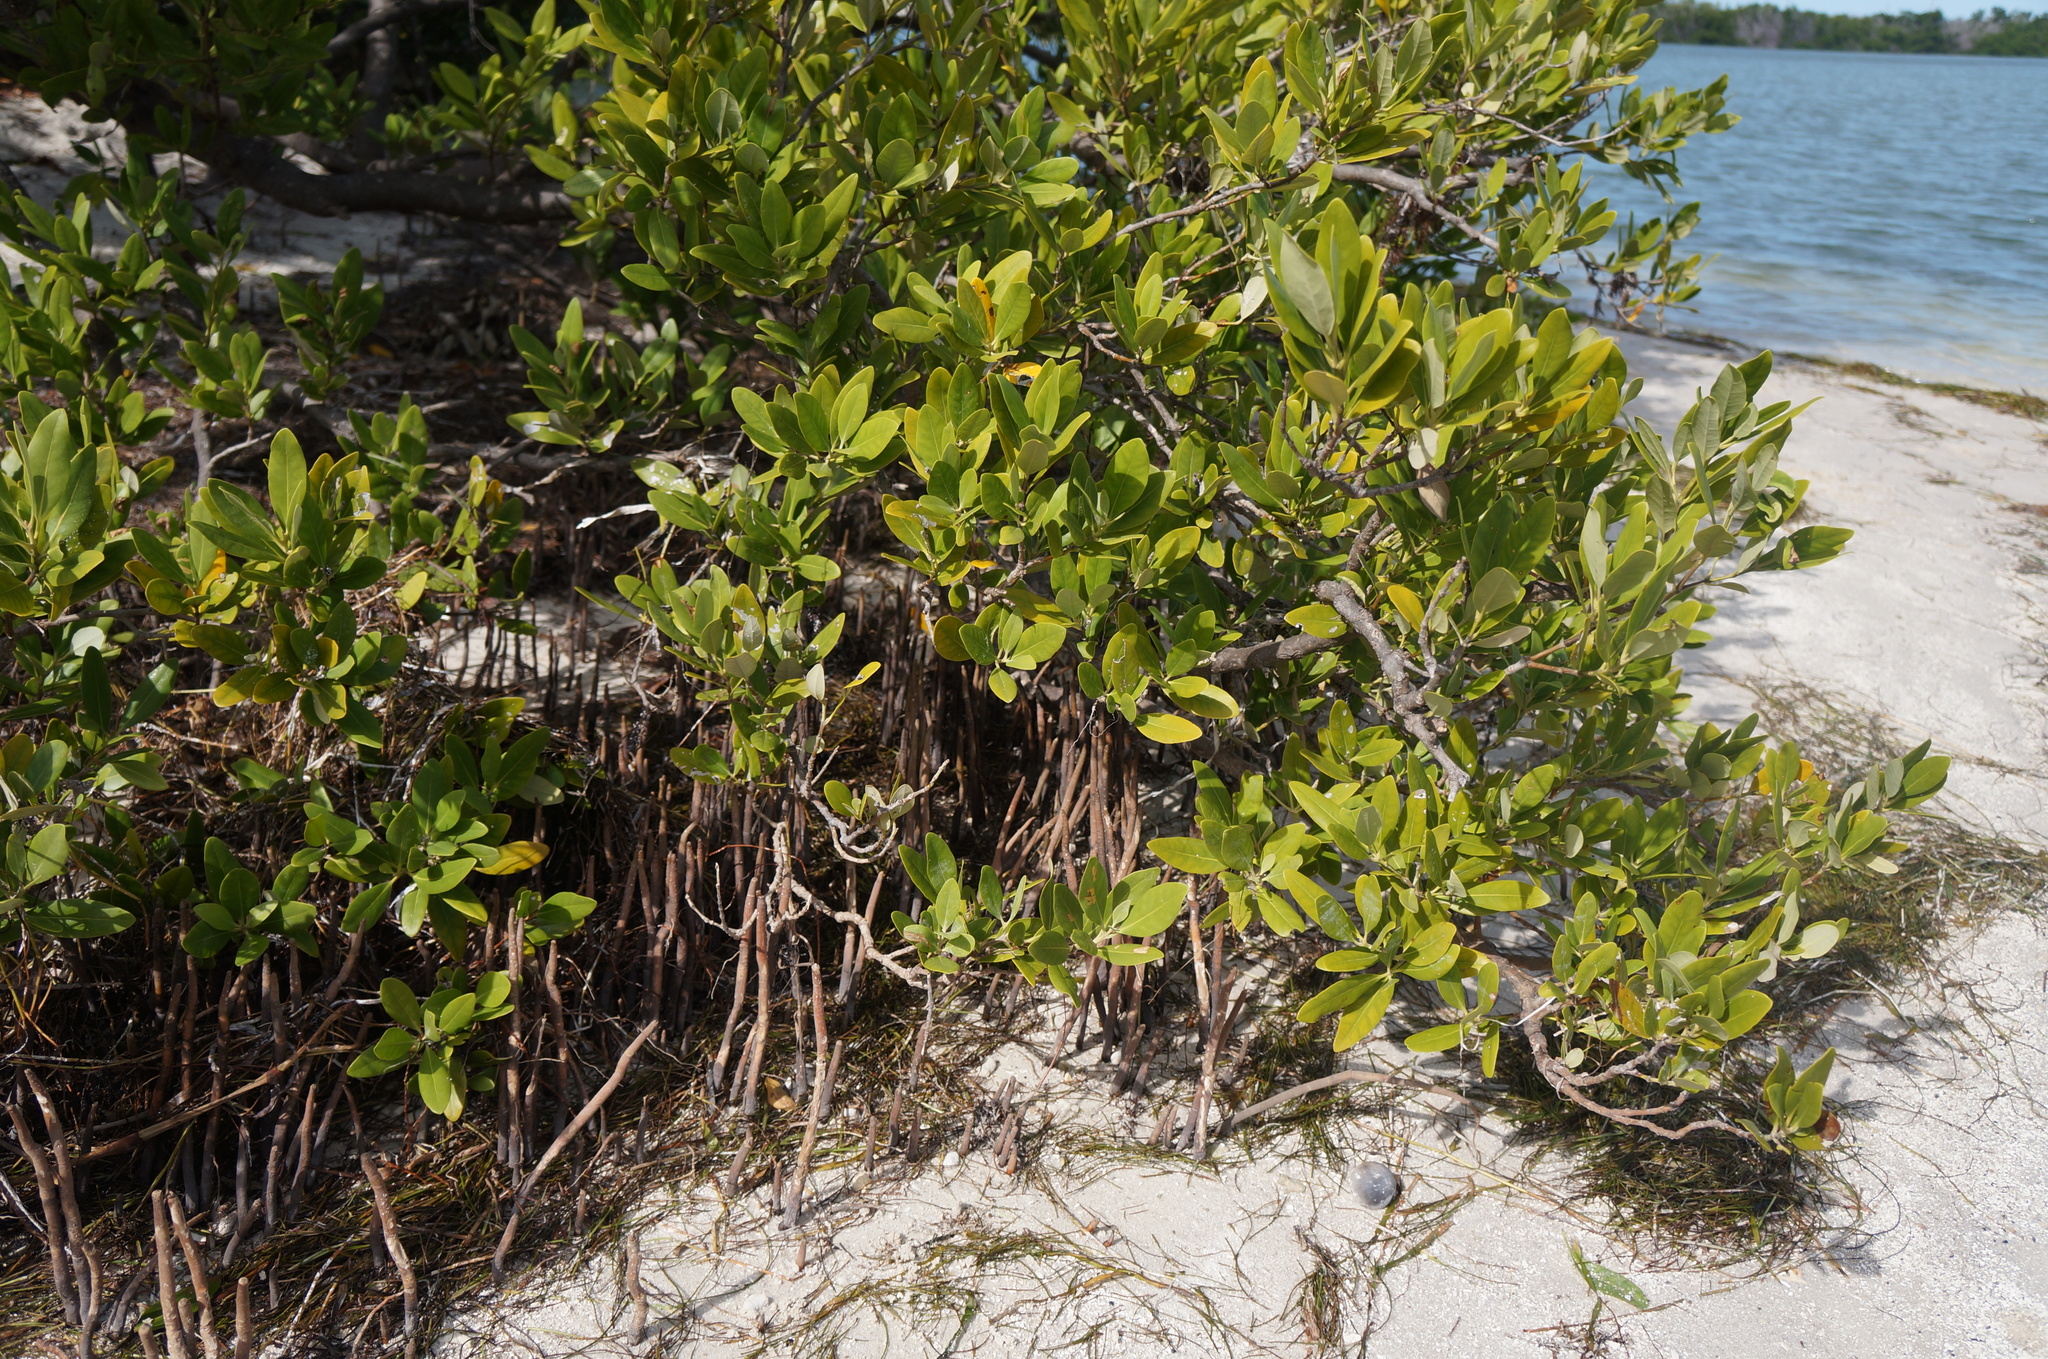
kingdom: Plantae
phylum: Tracheophyta
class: Magnoliopsida
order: Lamiales
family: Acanthaceae
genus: Avicennia
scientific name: Avicennia germinans
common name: Black mangrove
